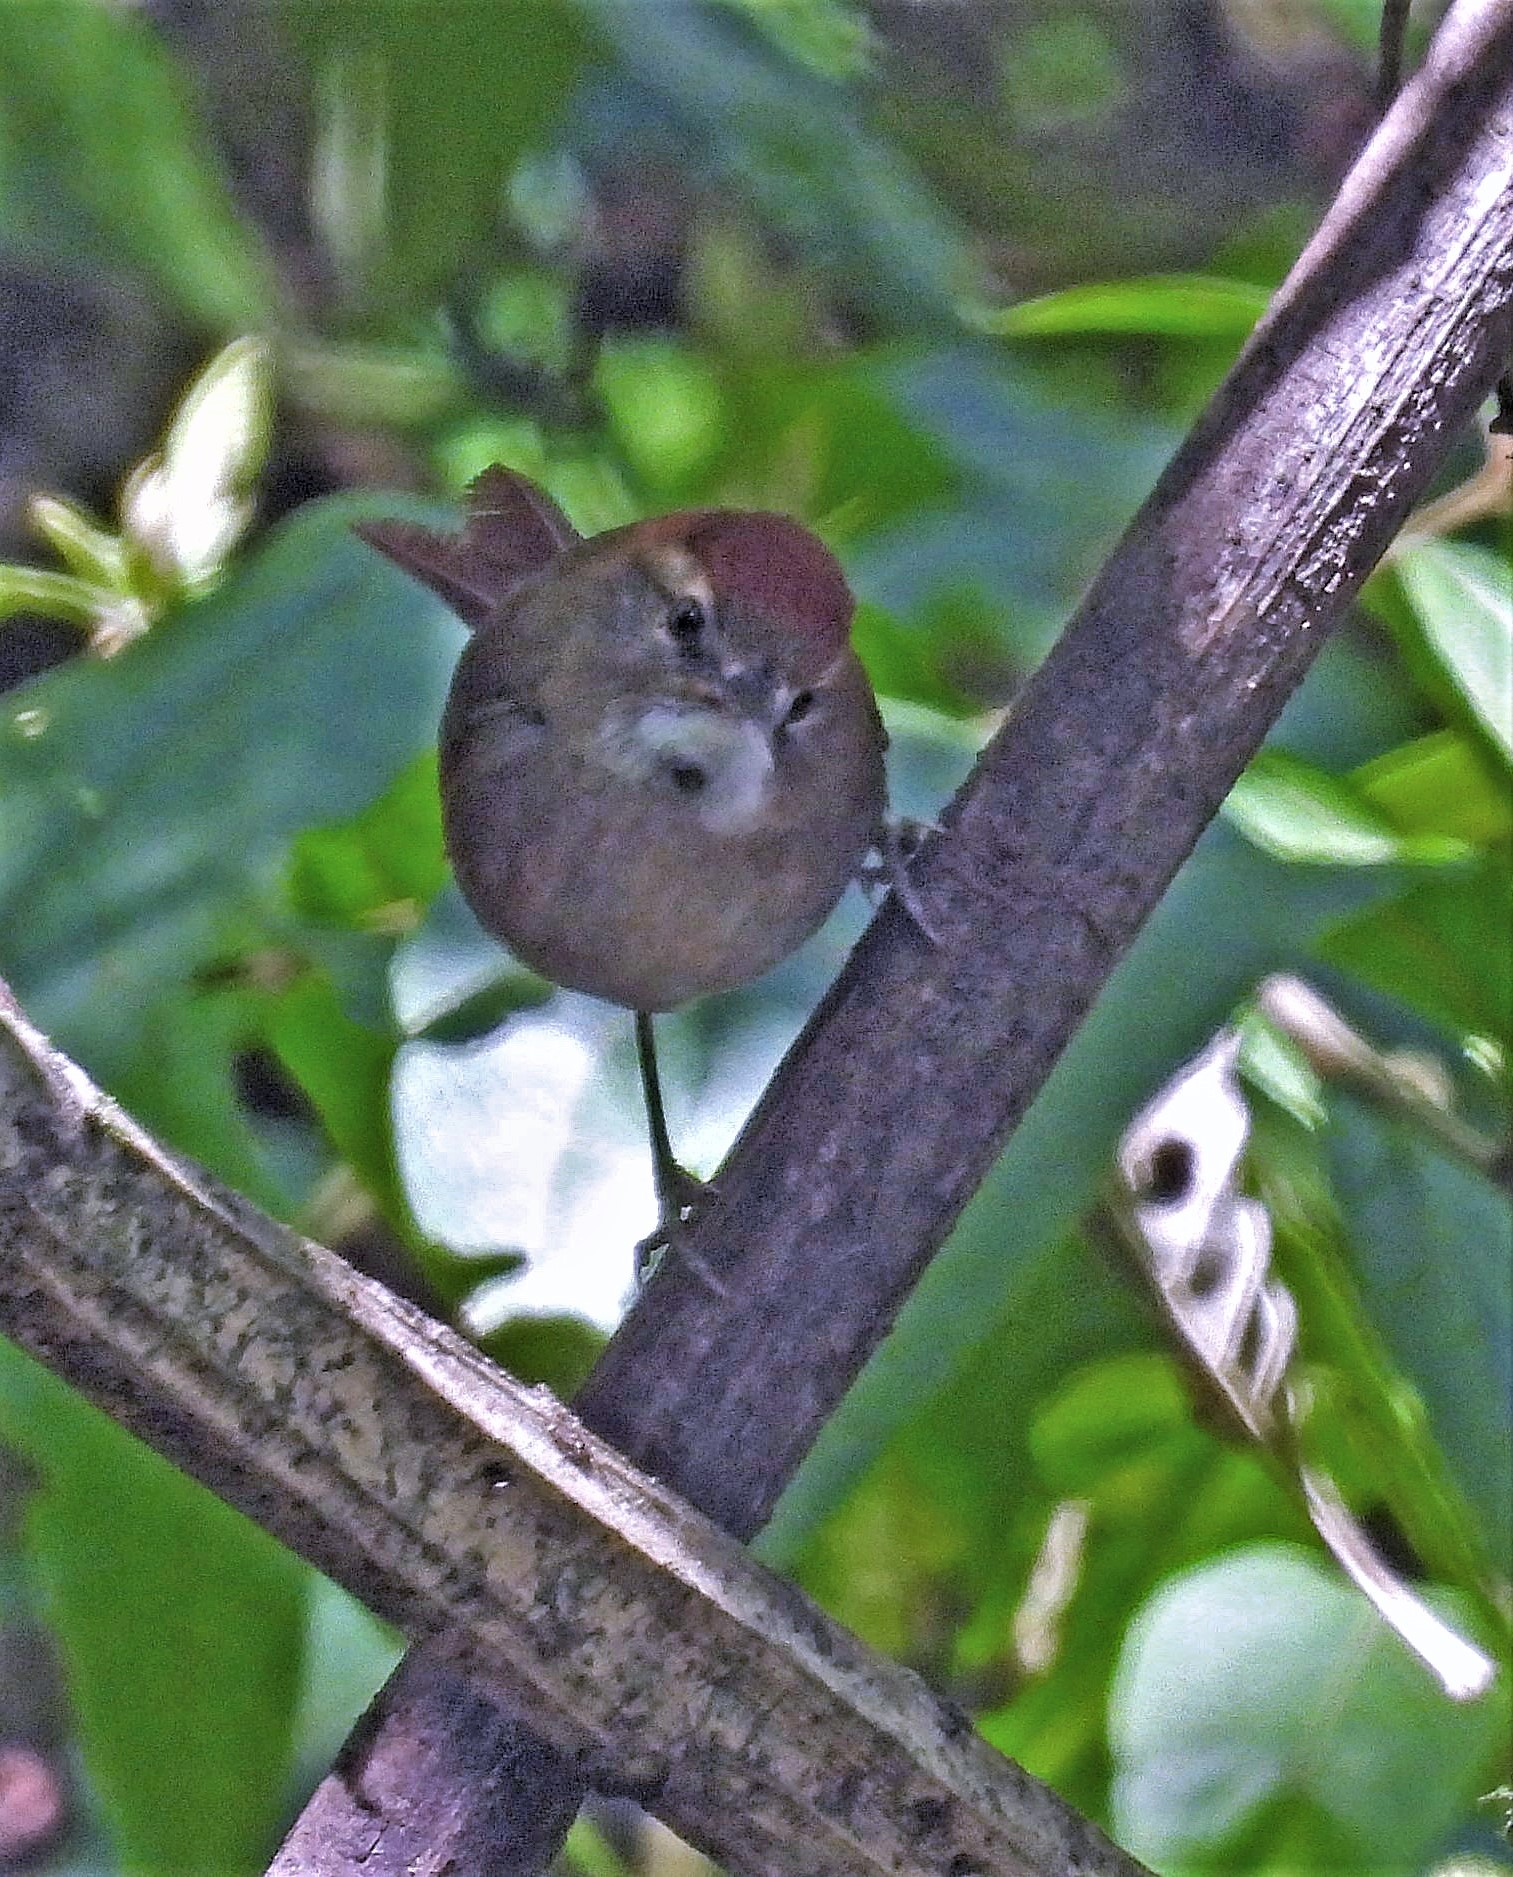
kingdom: Animalia
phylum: Chordata
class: Aves
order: Passeriformes
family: Furnariidae
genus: Synallaxis
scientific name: Synallaxis azarae
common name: Azara's spinetail
